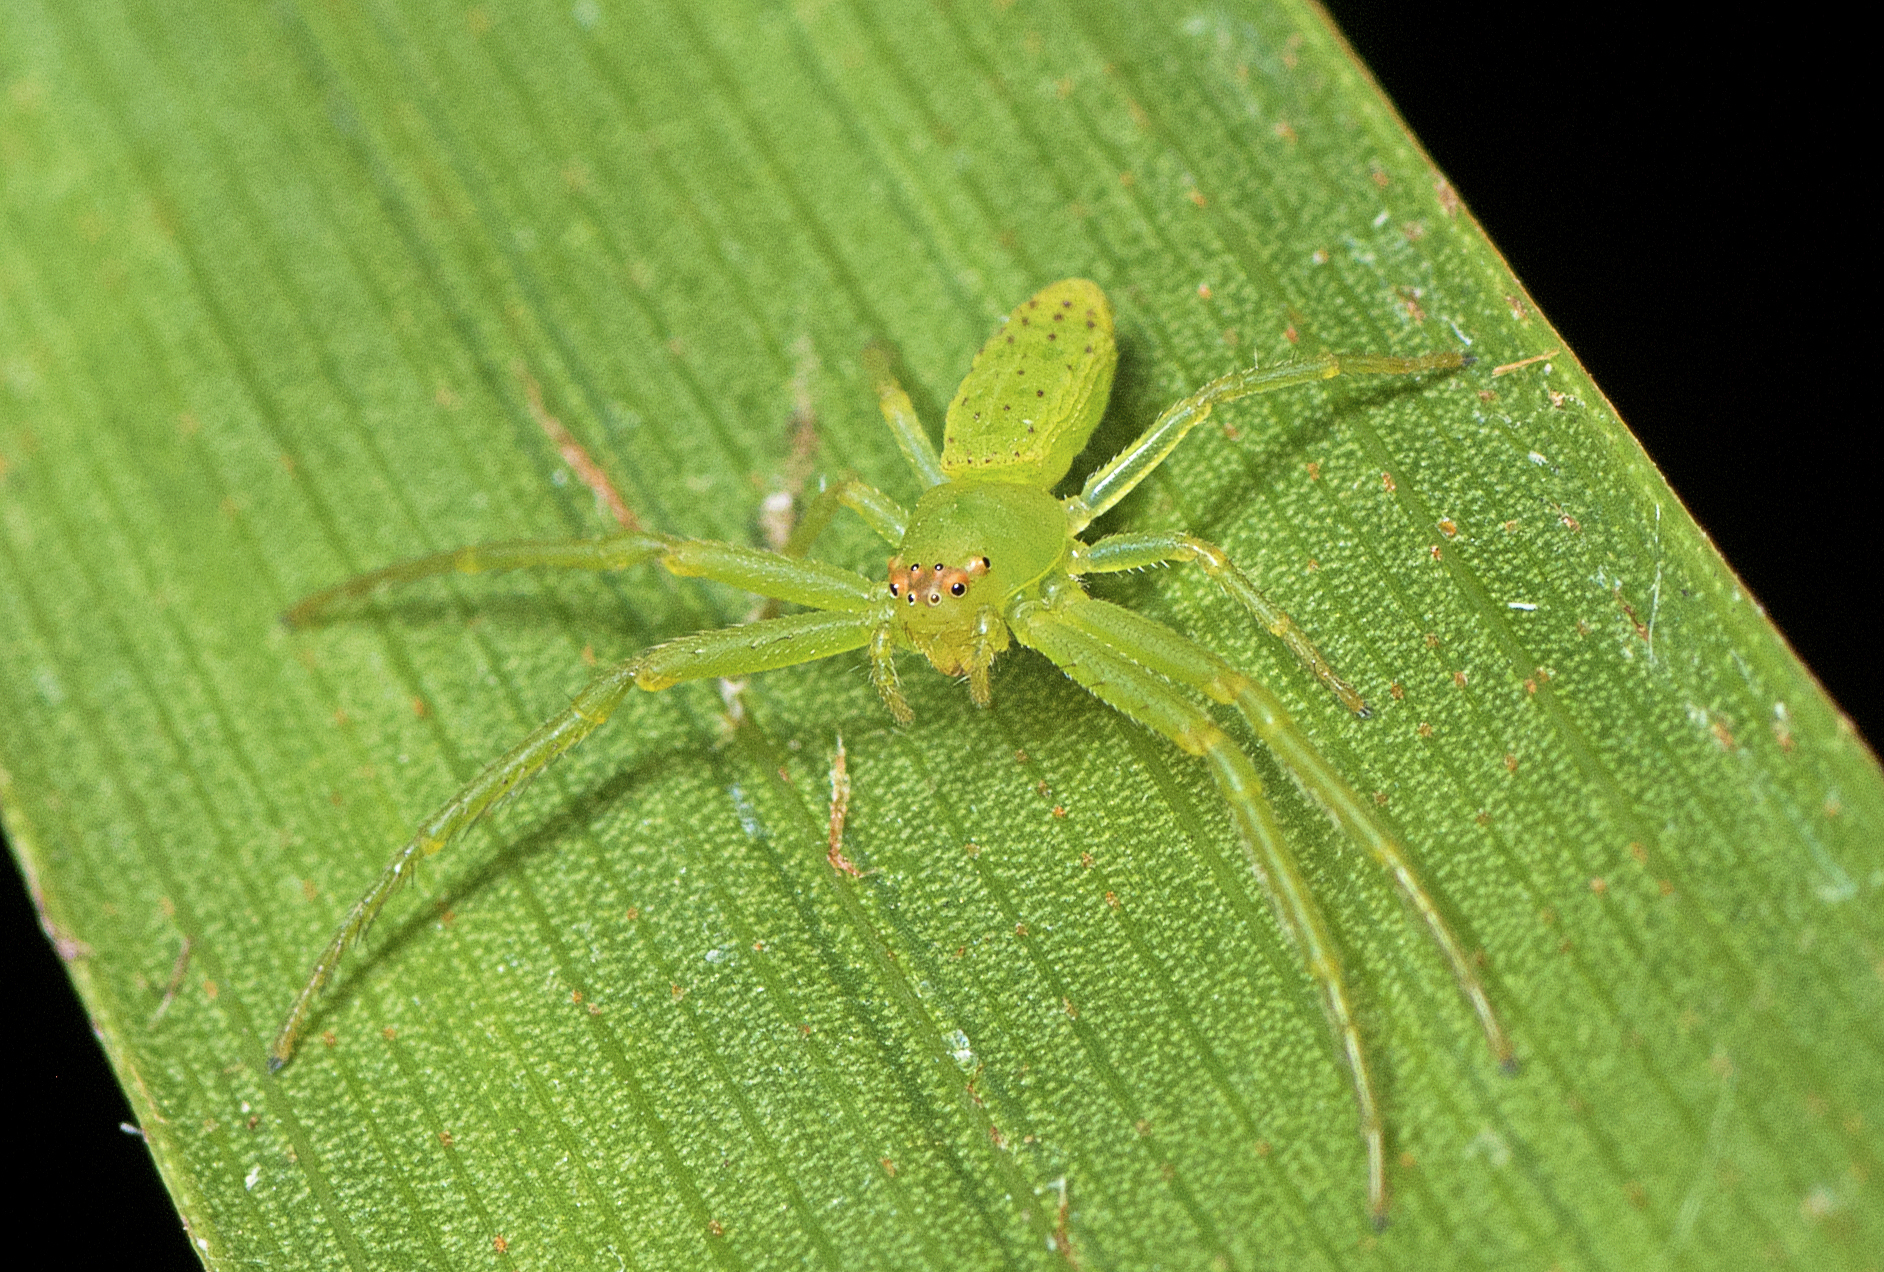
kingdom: Animalia
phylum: Arthropoda
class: Arachnida
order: Araneae
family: Thomisidae
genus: Cetratus
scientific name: Cetratus rubropunctatus
